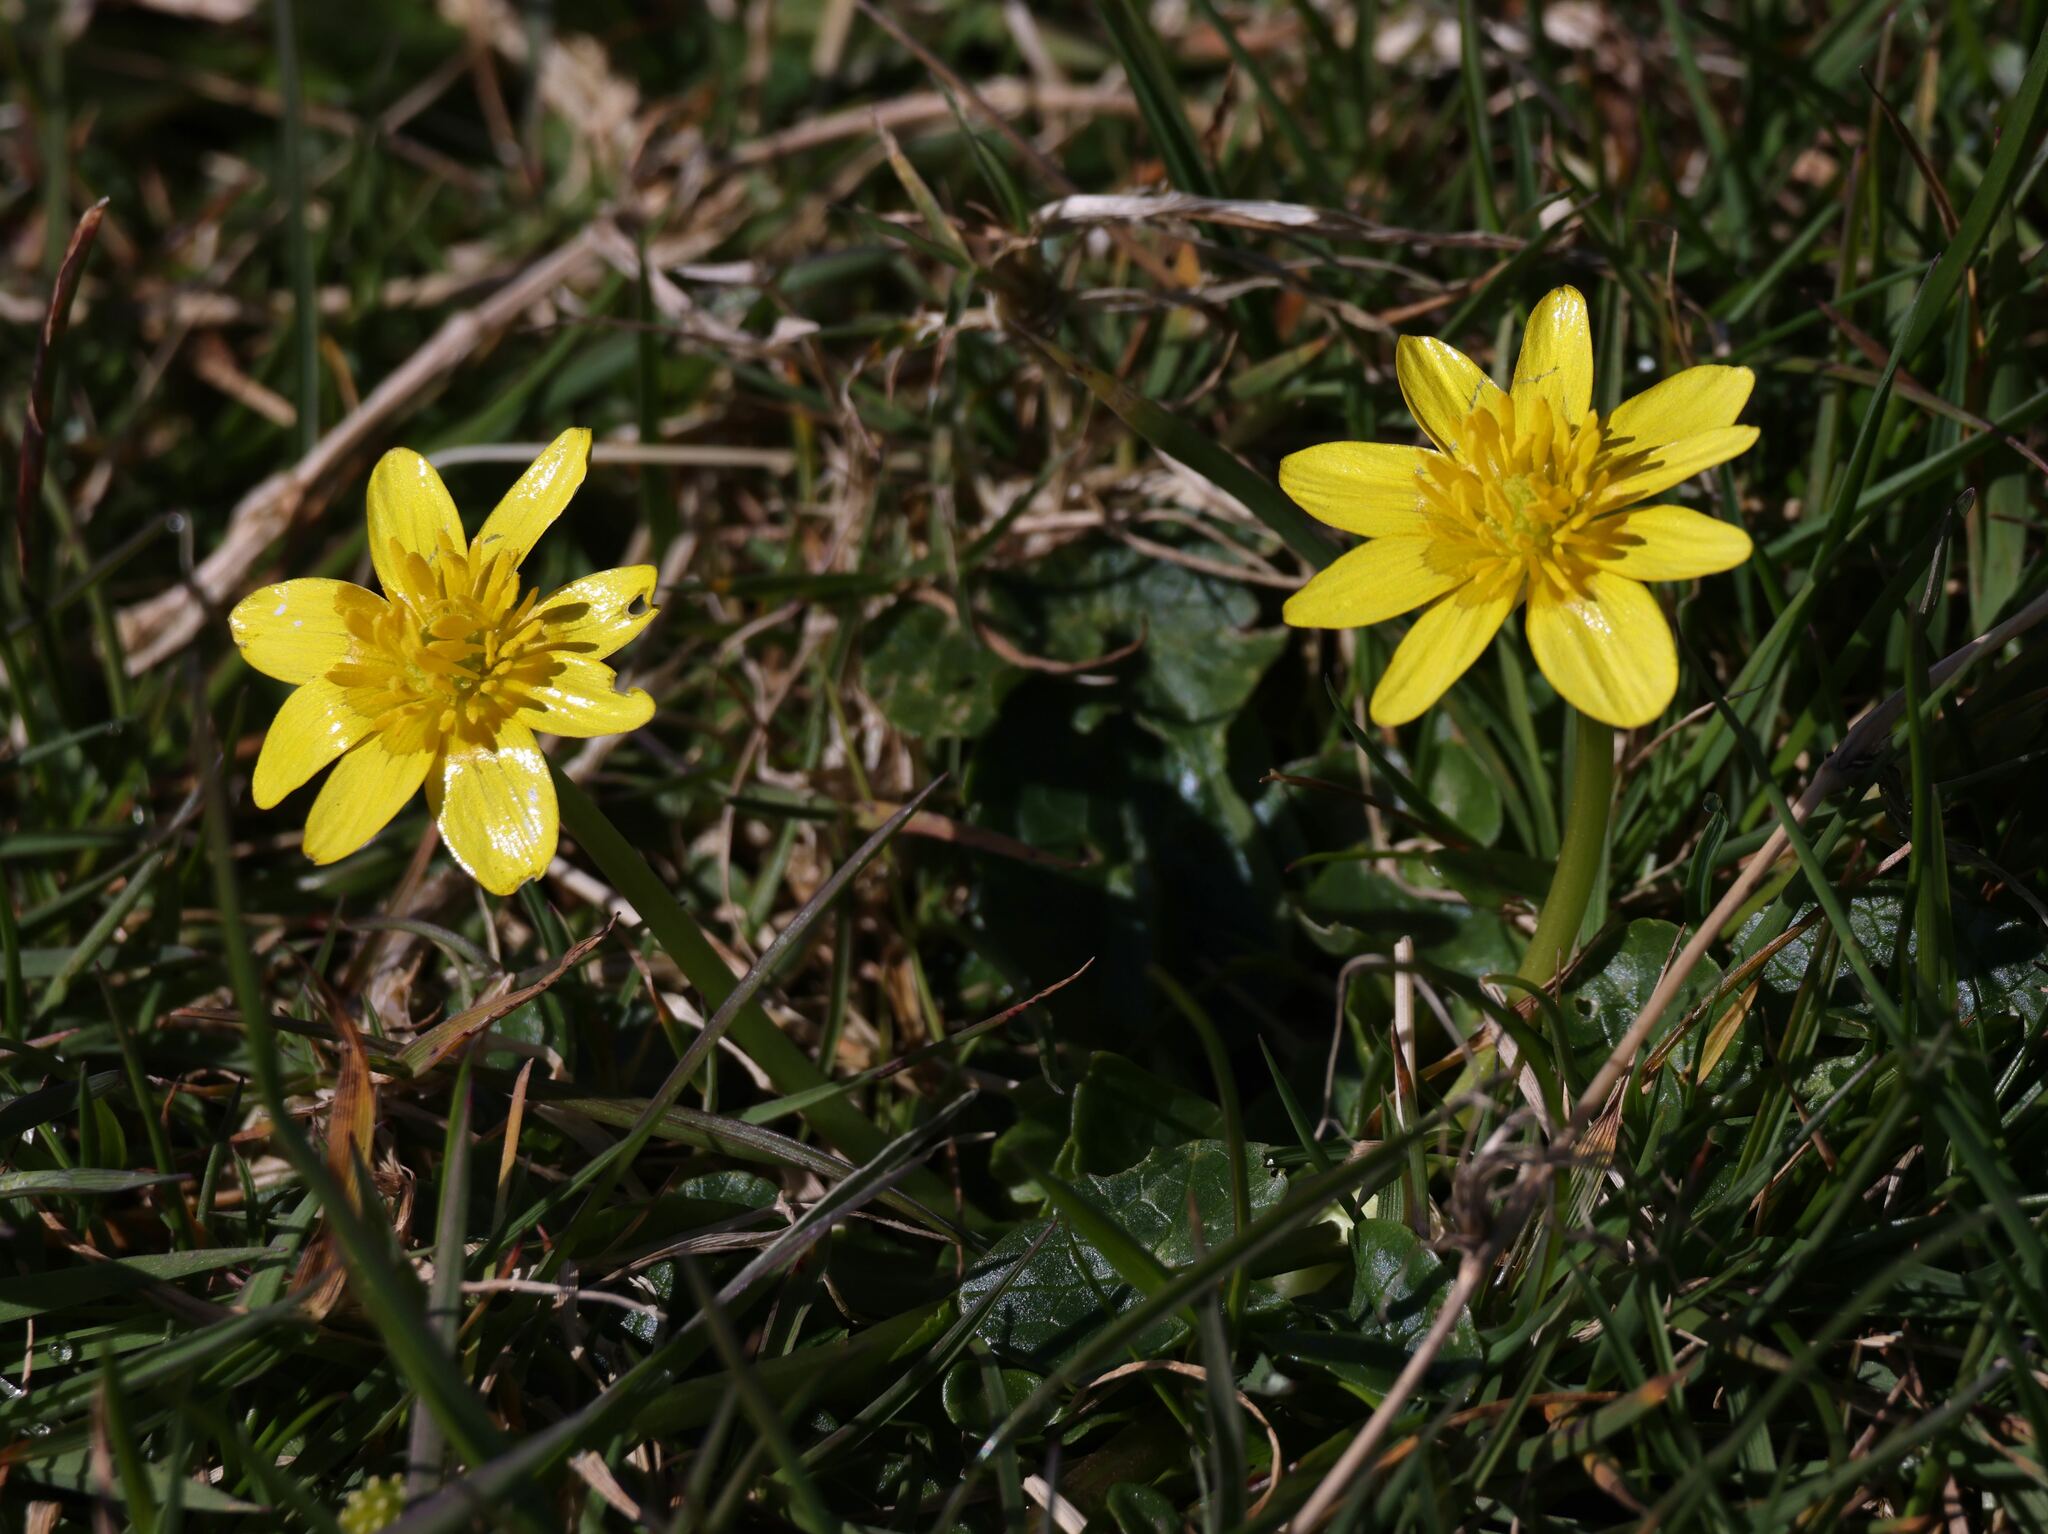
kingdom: Plantae
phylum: Tracheophyta
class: Magnoliopsida
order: Ranunculales
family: Ranunculaceae
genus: Ficaria
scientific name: Ficaria verna
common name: Lesser celandine
